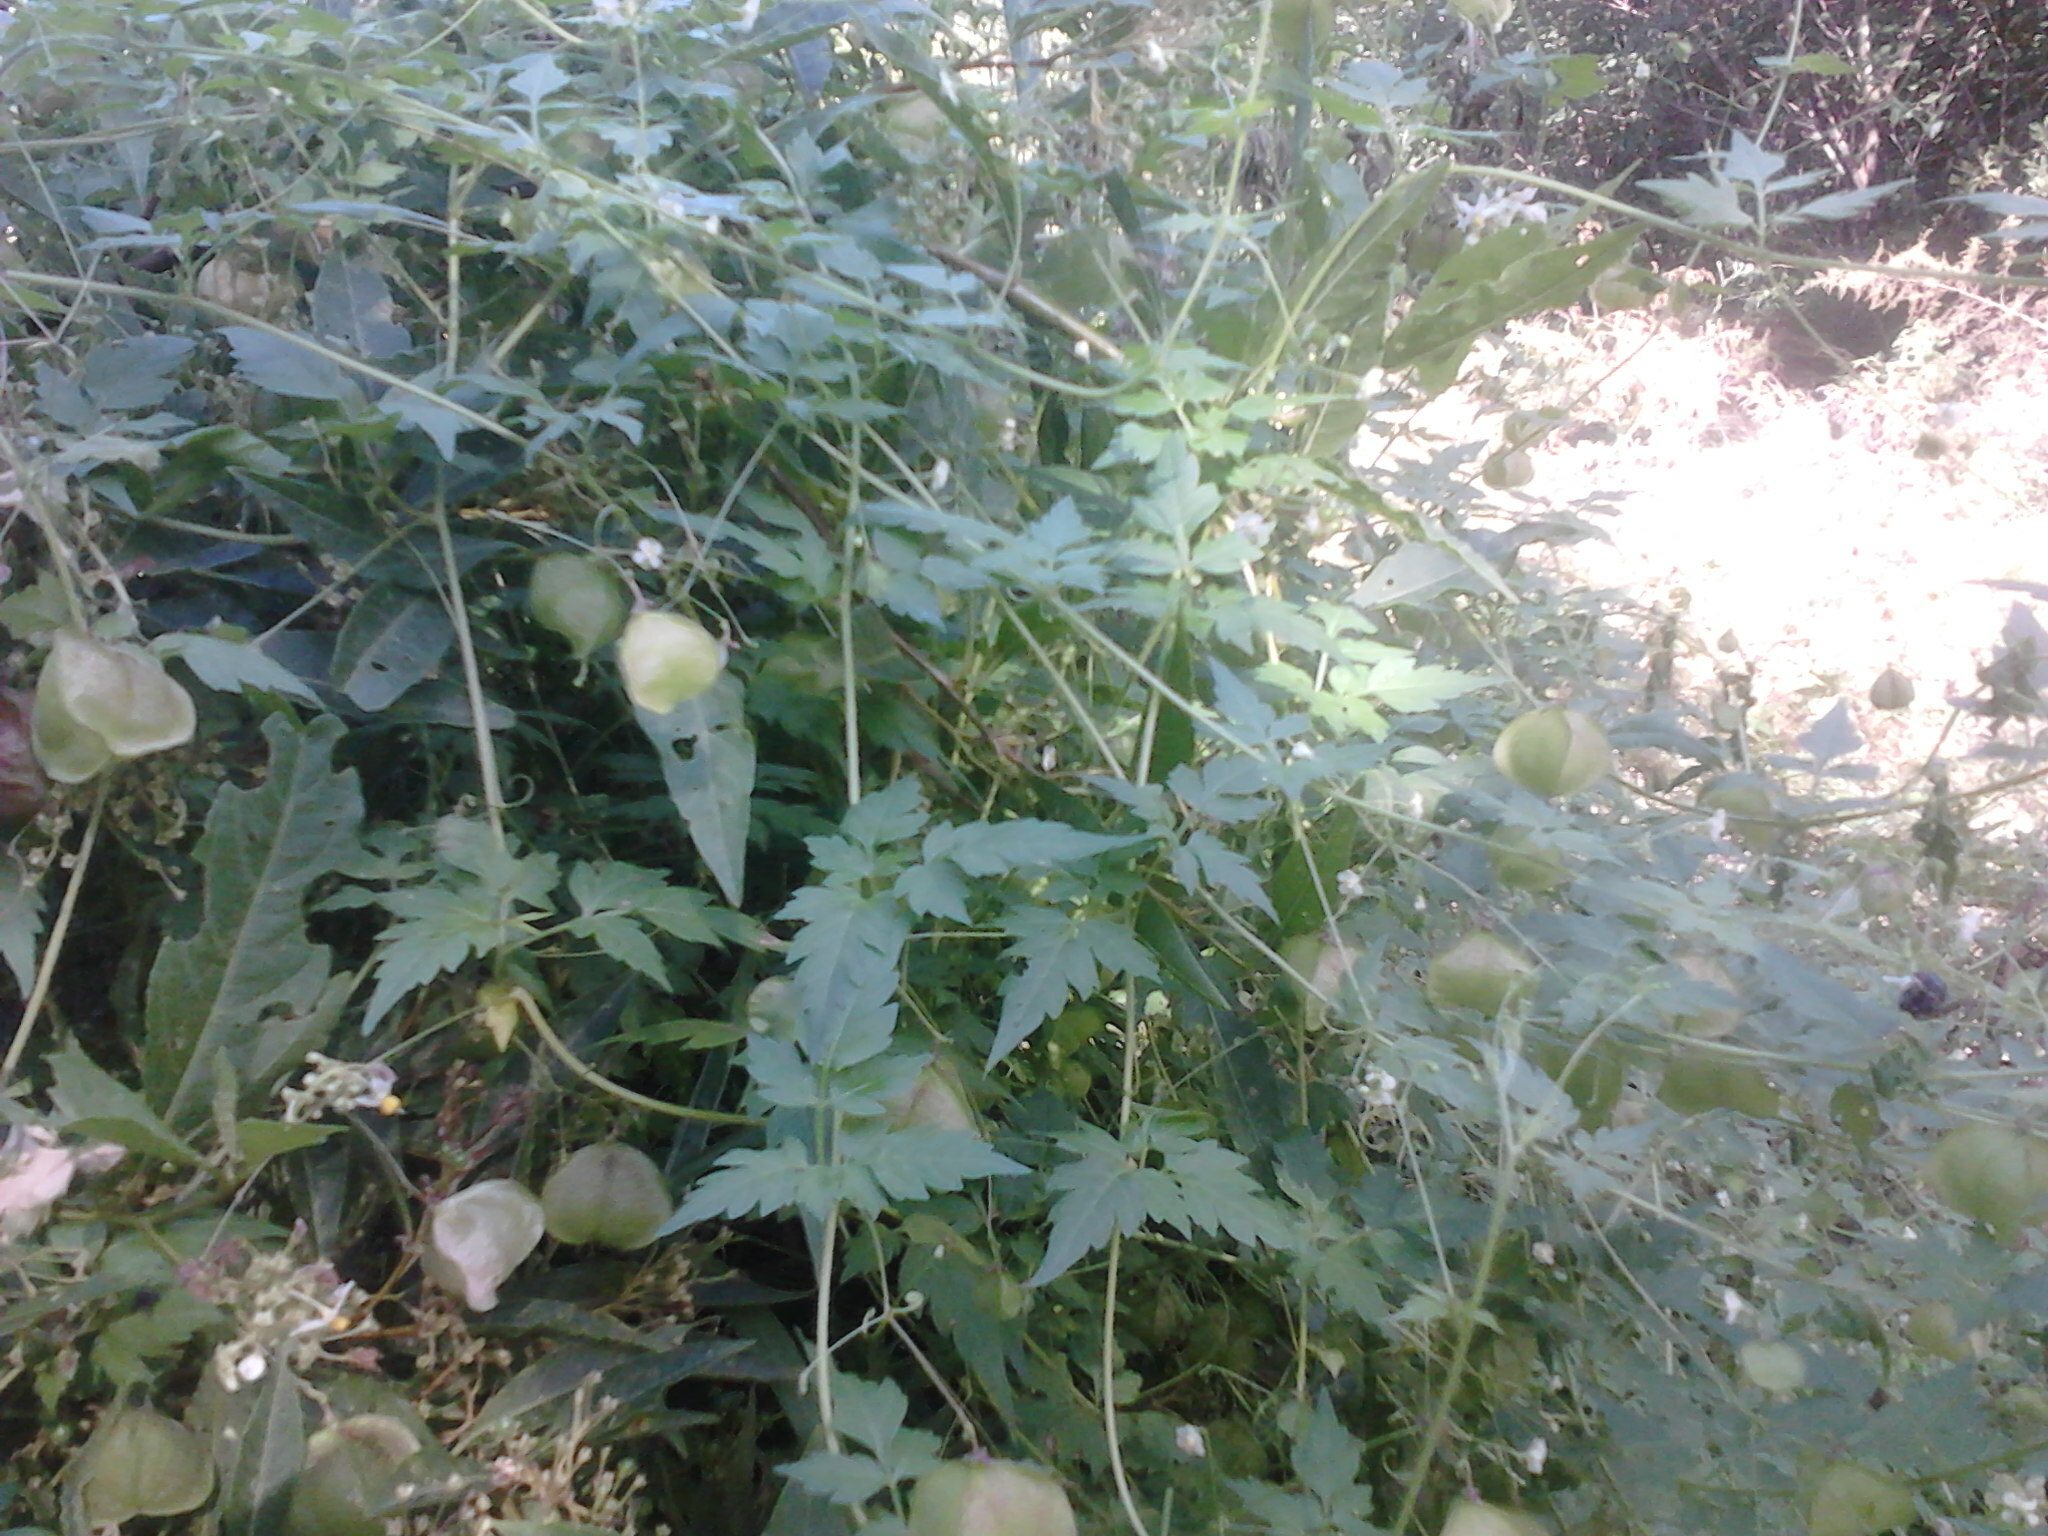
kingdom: Plantae
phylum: Tracheophyta
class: Magnoliopsida
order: Sapindales
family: Sapindaceae
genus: Cardiospermum
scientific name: Cardiospermum halicacabum
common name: Balloon vine
